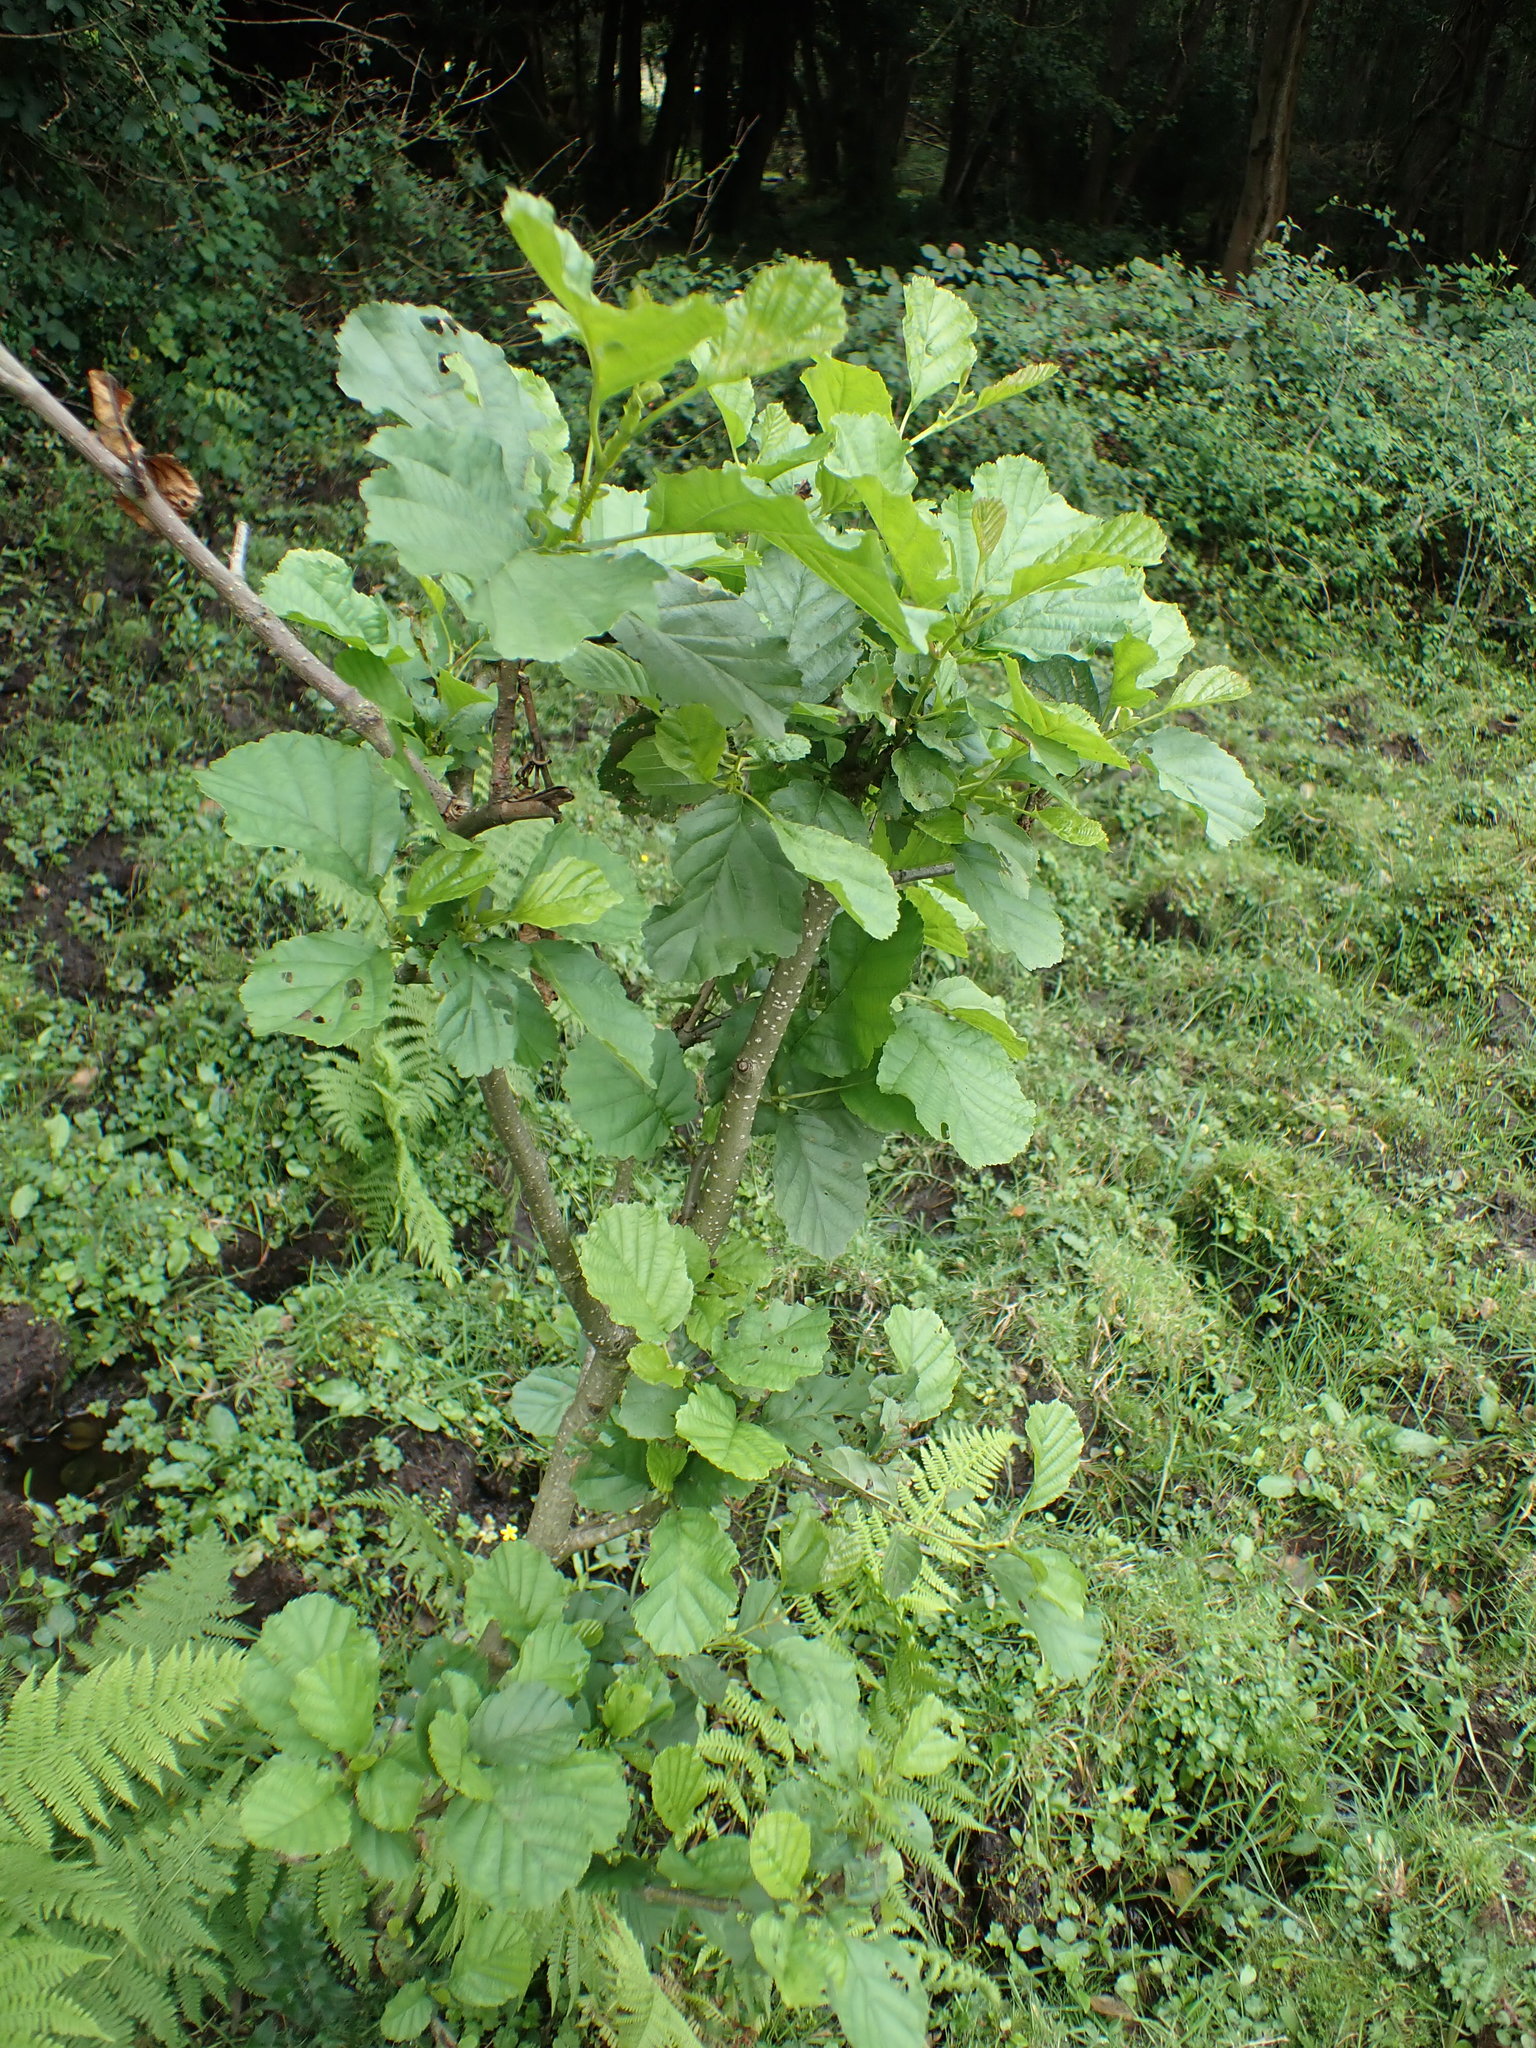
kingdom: Plantae
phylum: Tracheophyta
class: Magnoliopsida
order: Fagales
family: Betulaceae
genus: Alnus
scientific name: Alnus glutinosa
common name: Black alder
